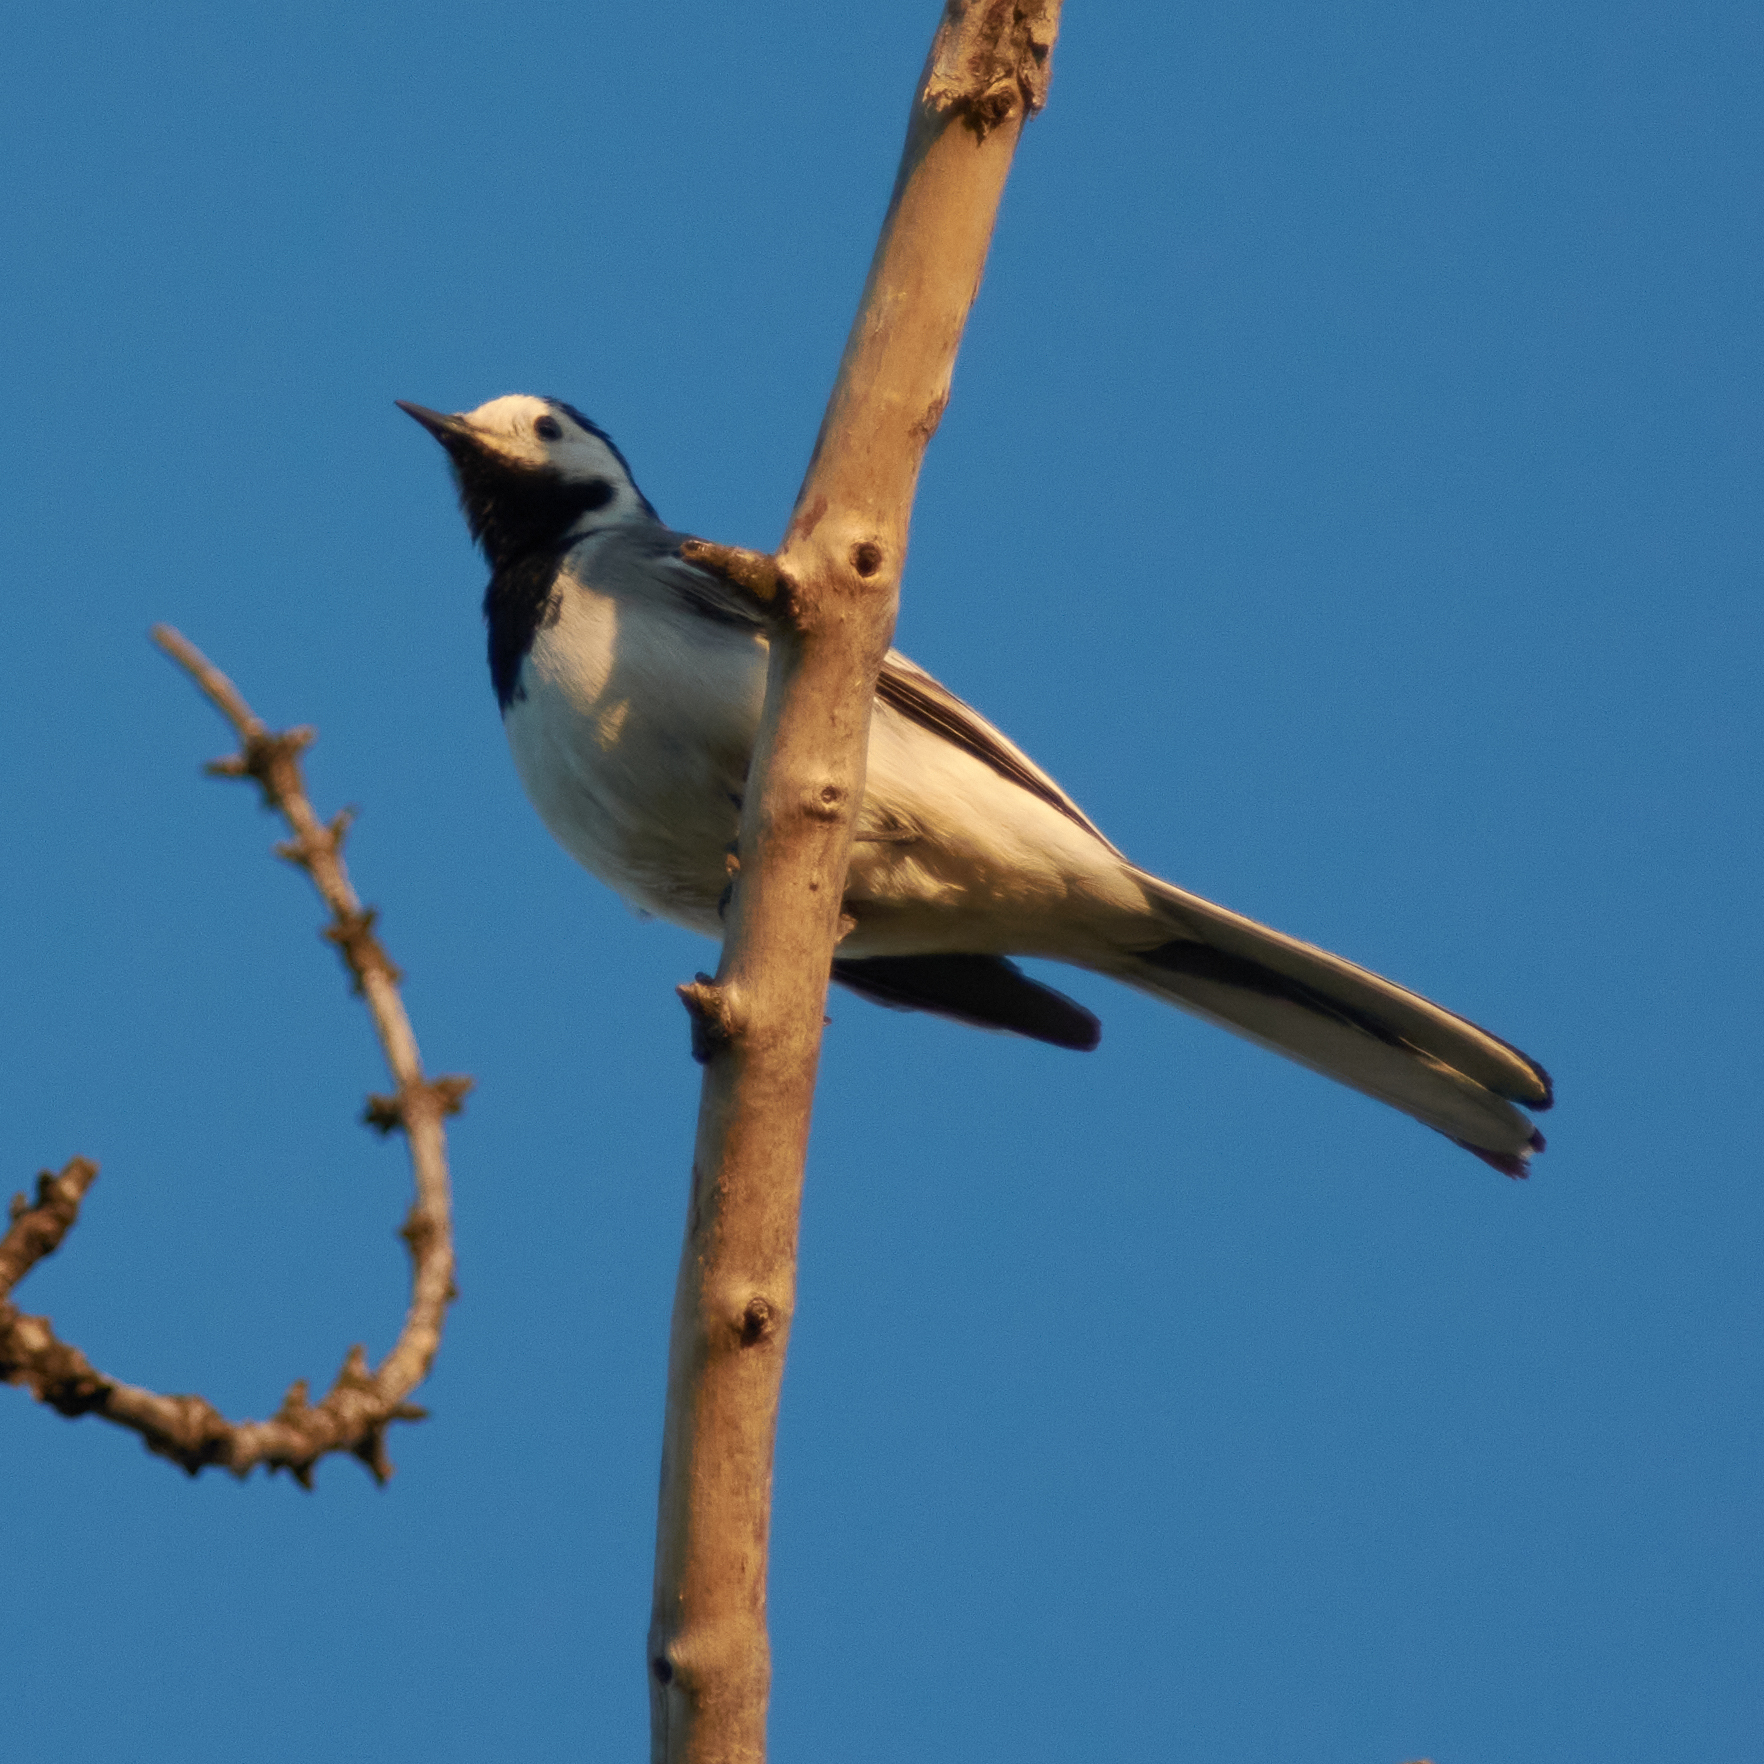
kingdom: Animalia
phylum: Chordata
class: Aves
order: Passeriformes
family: Motacillidae
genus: Motacilla
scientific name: Motacilla alba
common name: White wagtail
